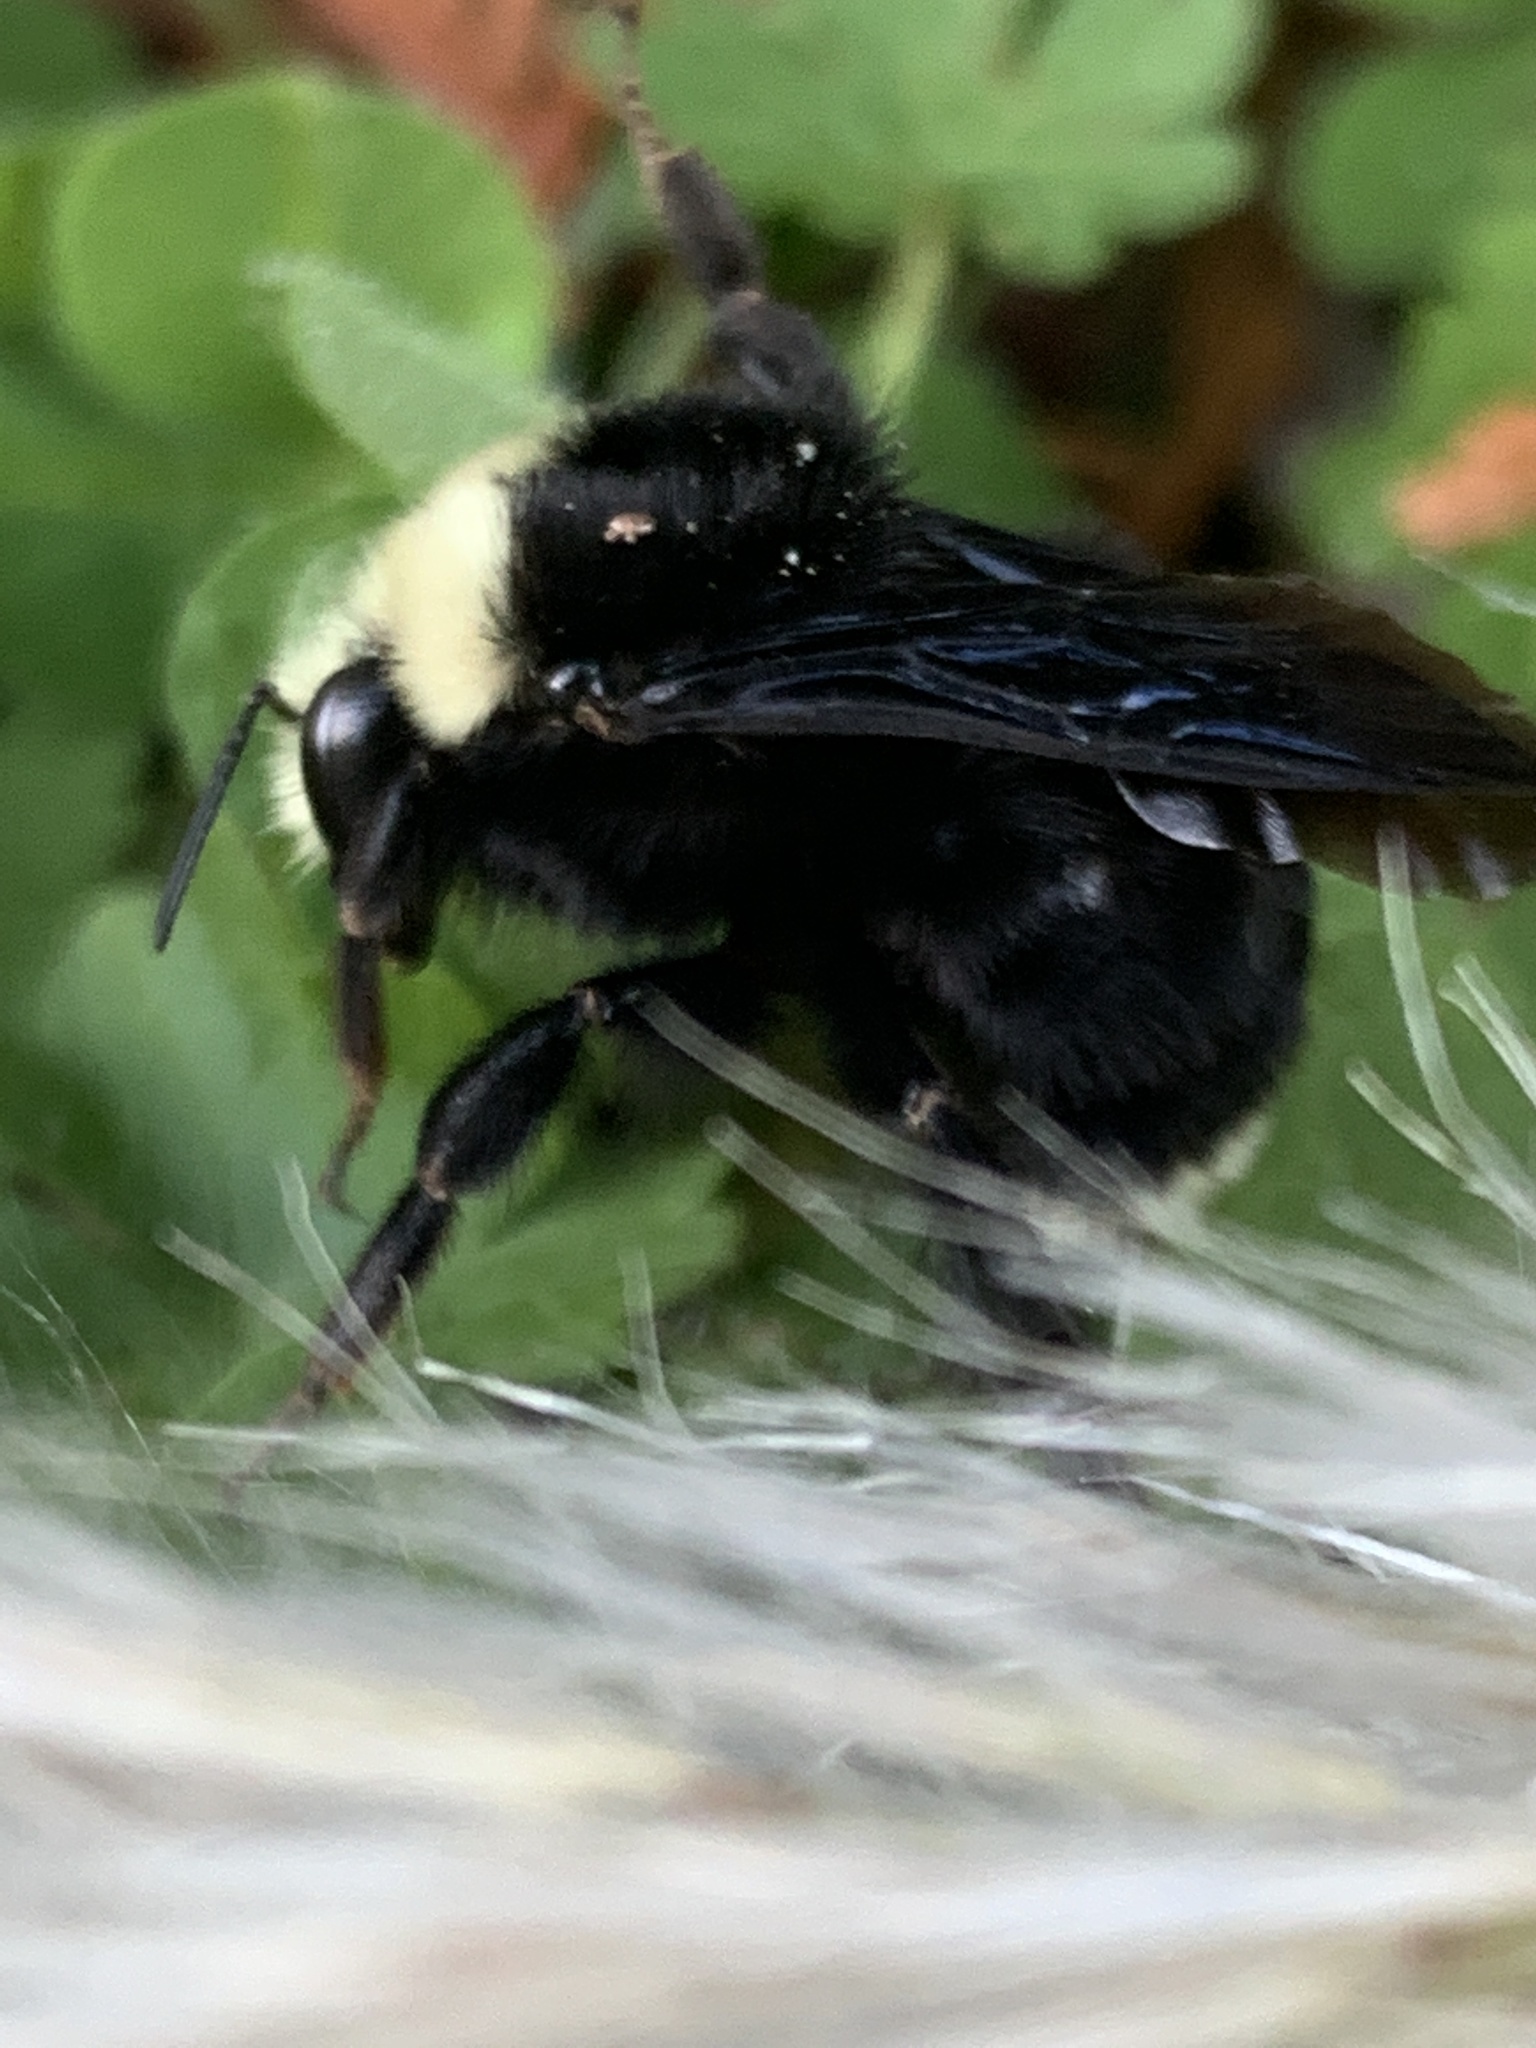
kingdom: Animalia
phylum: Arthropoda
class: Insecta
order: Hymenoptera
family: Apidae
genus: Bombus
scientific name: Bombus vosnesenskii
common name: Vosnesensky bumble bee
